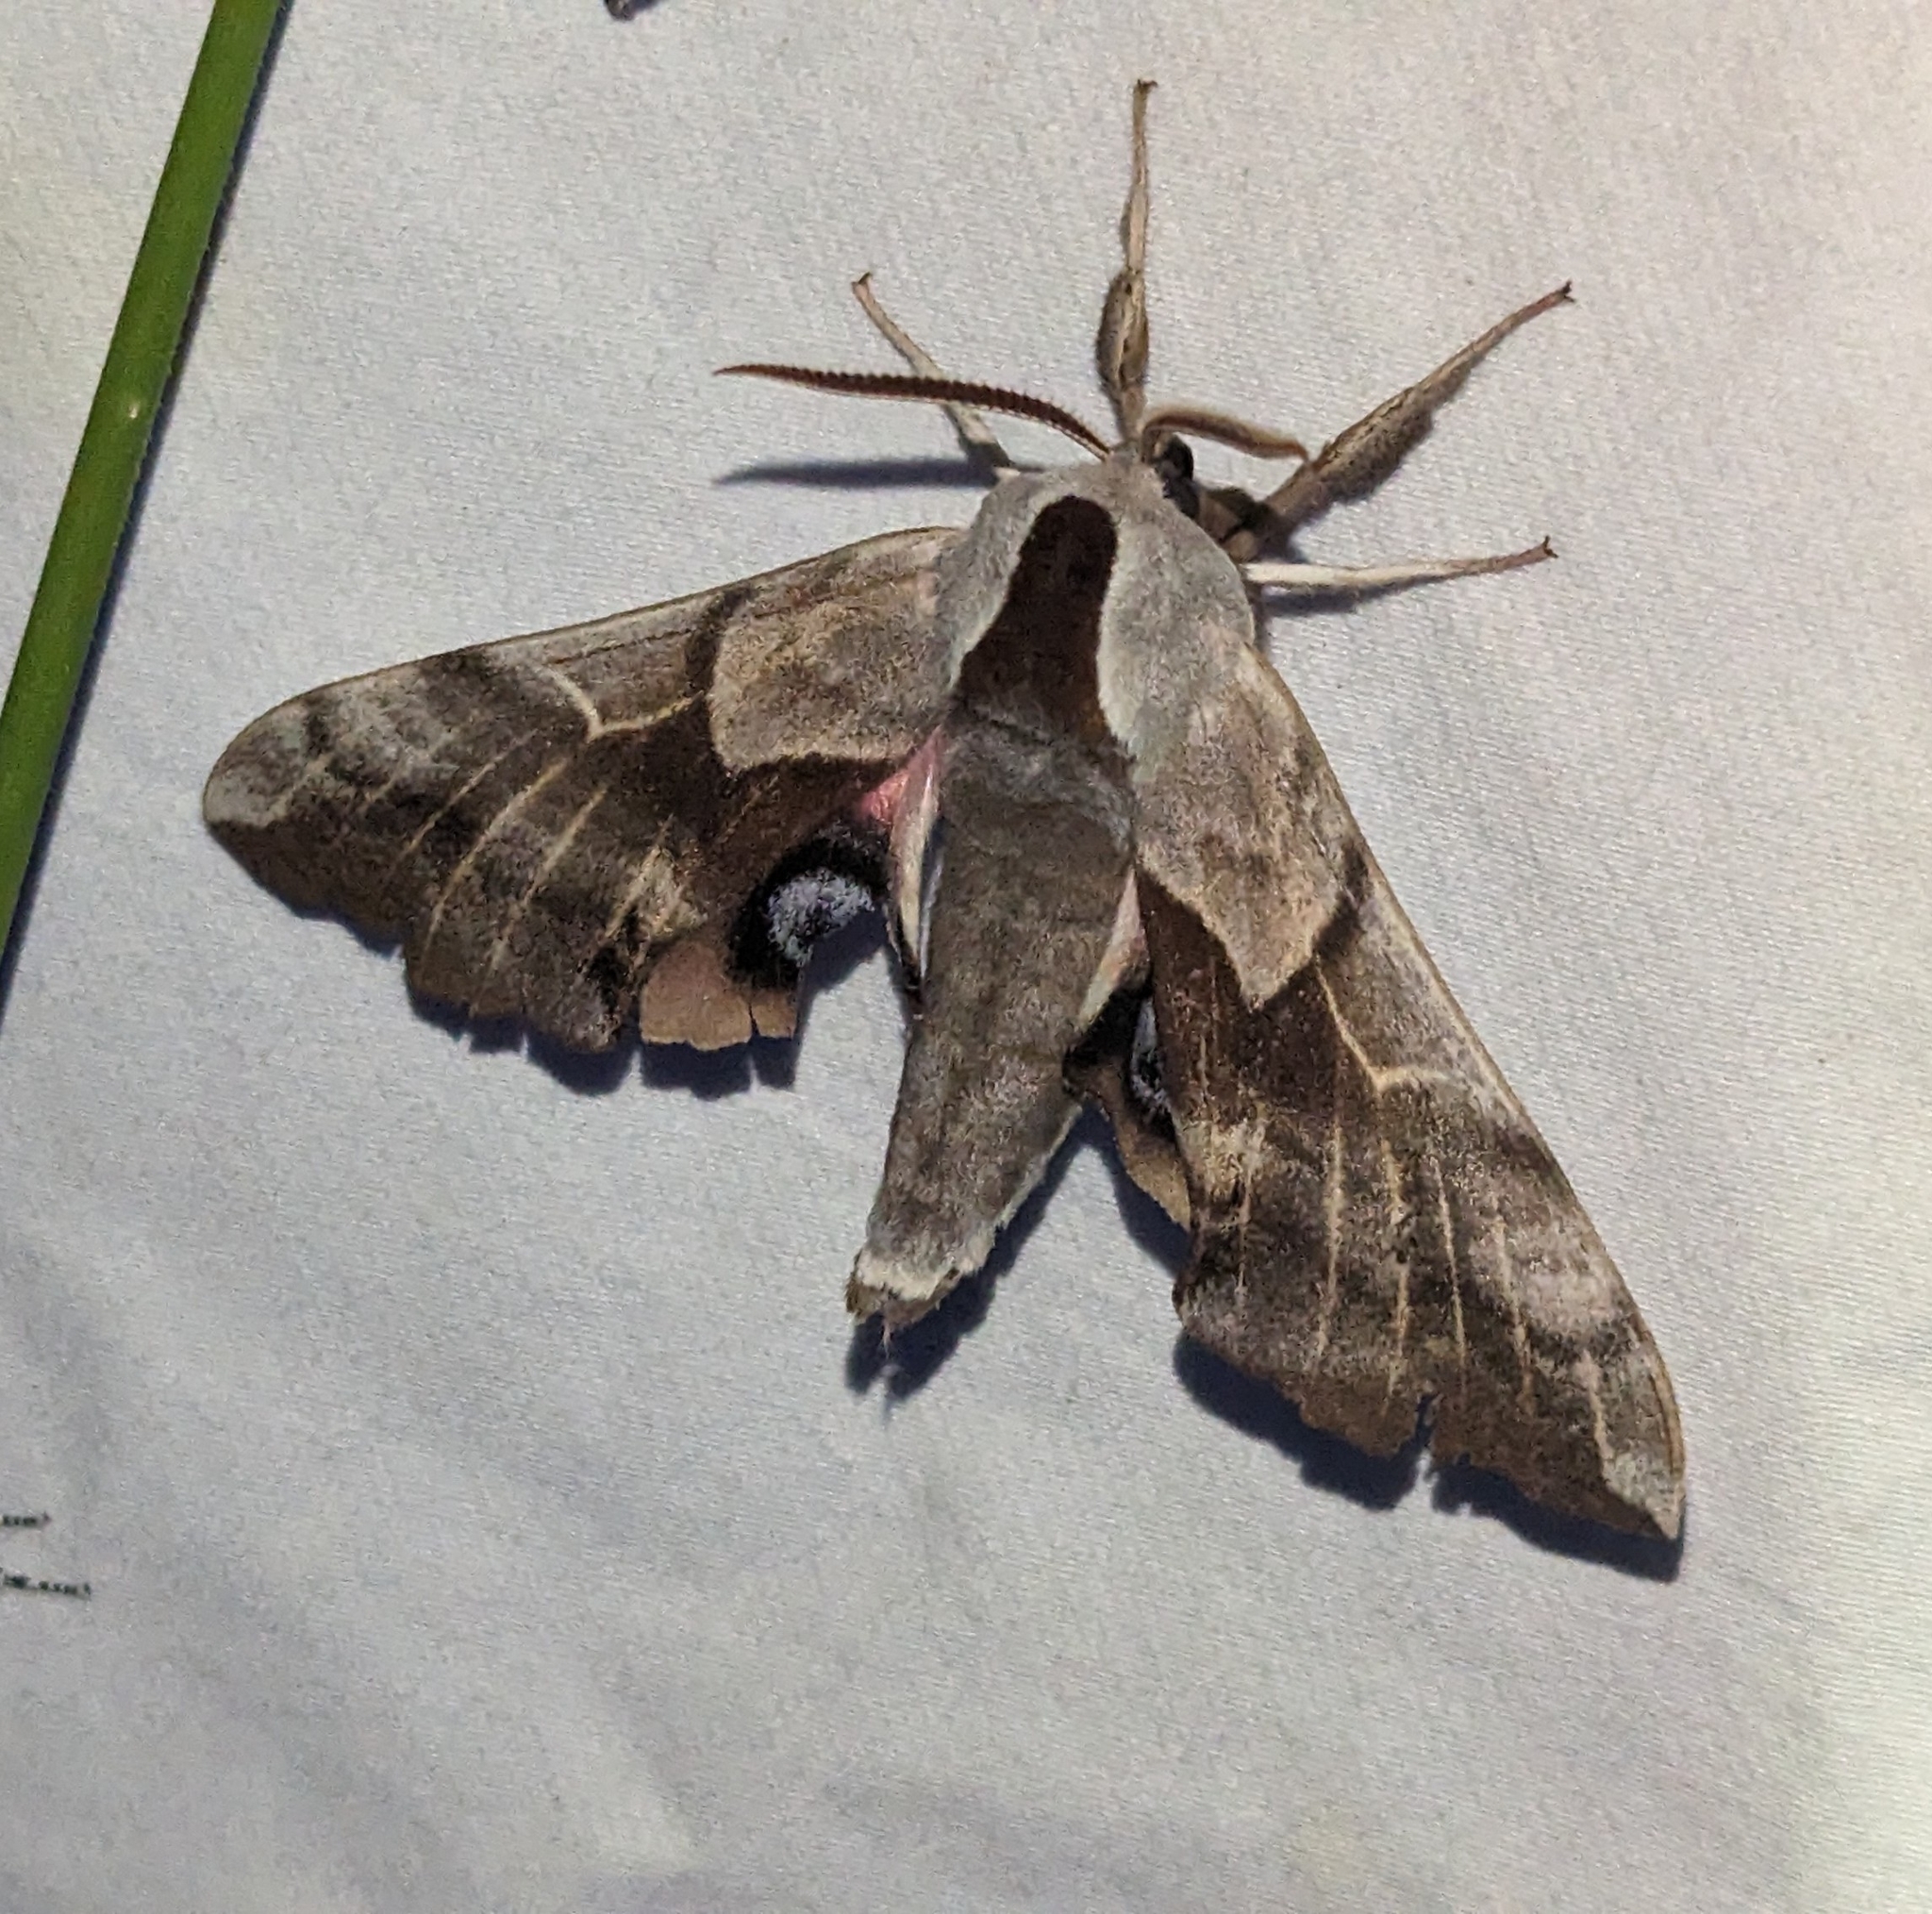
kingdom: Animalia
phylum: Arthropoda
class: Insecta
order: Lepidoptera
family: Sphingidae
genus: Smerinthus
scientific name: Smerinthus cerisyi
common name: Cerisy's sphinx moth
